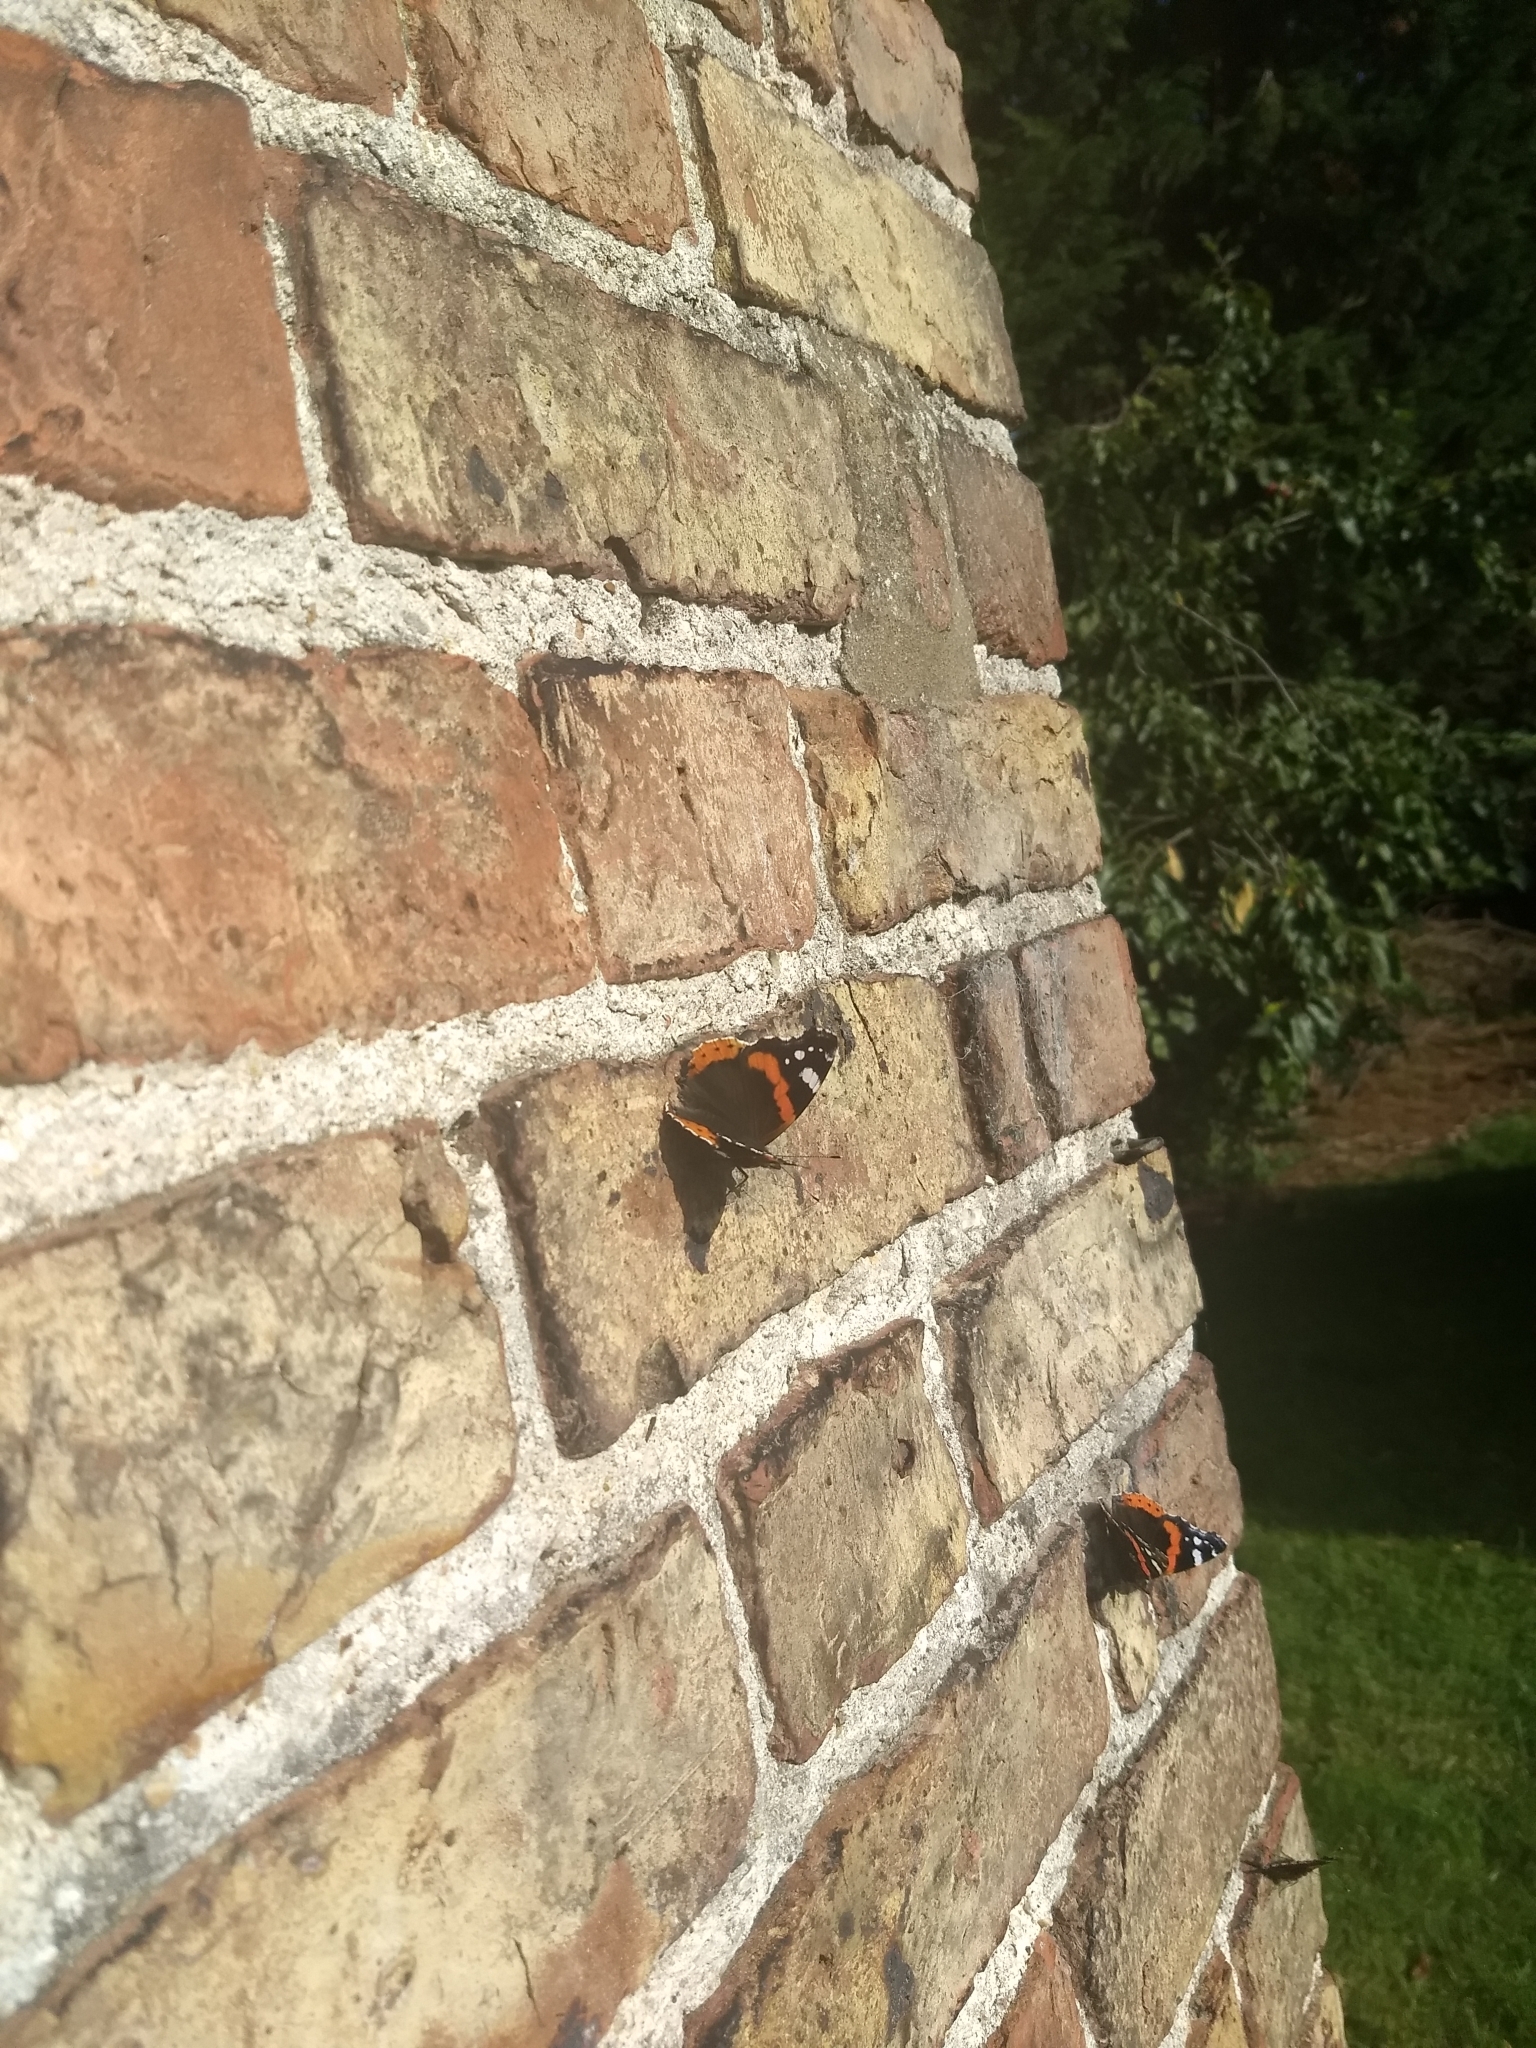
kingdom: Animalia
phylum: Arthropoda
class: Insecta
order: Lepidoptera
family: Nymphalidae
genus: Vanessa
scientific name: Vanessa atalanta
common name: Red admiral
